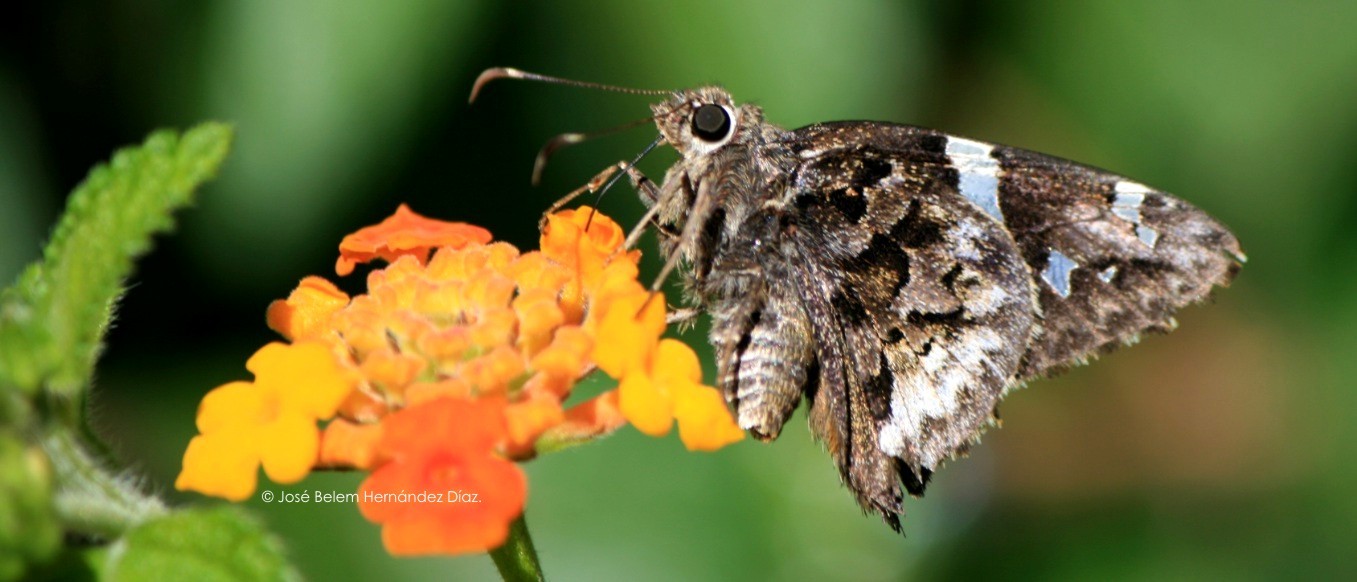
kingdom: Animalia
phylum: Arthropoda
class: Insecta
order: Lepidoptera
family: Hesperiidae
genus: Codatractus
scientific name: Codatractus bryaxis
